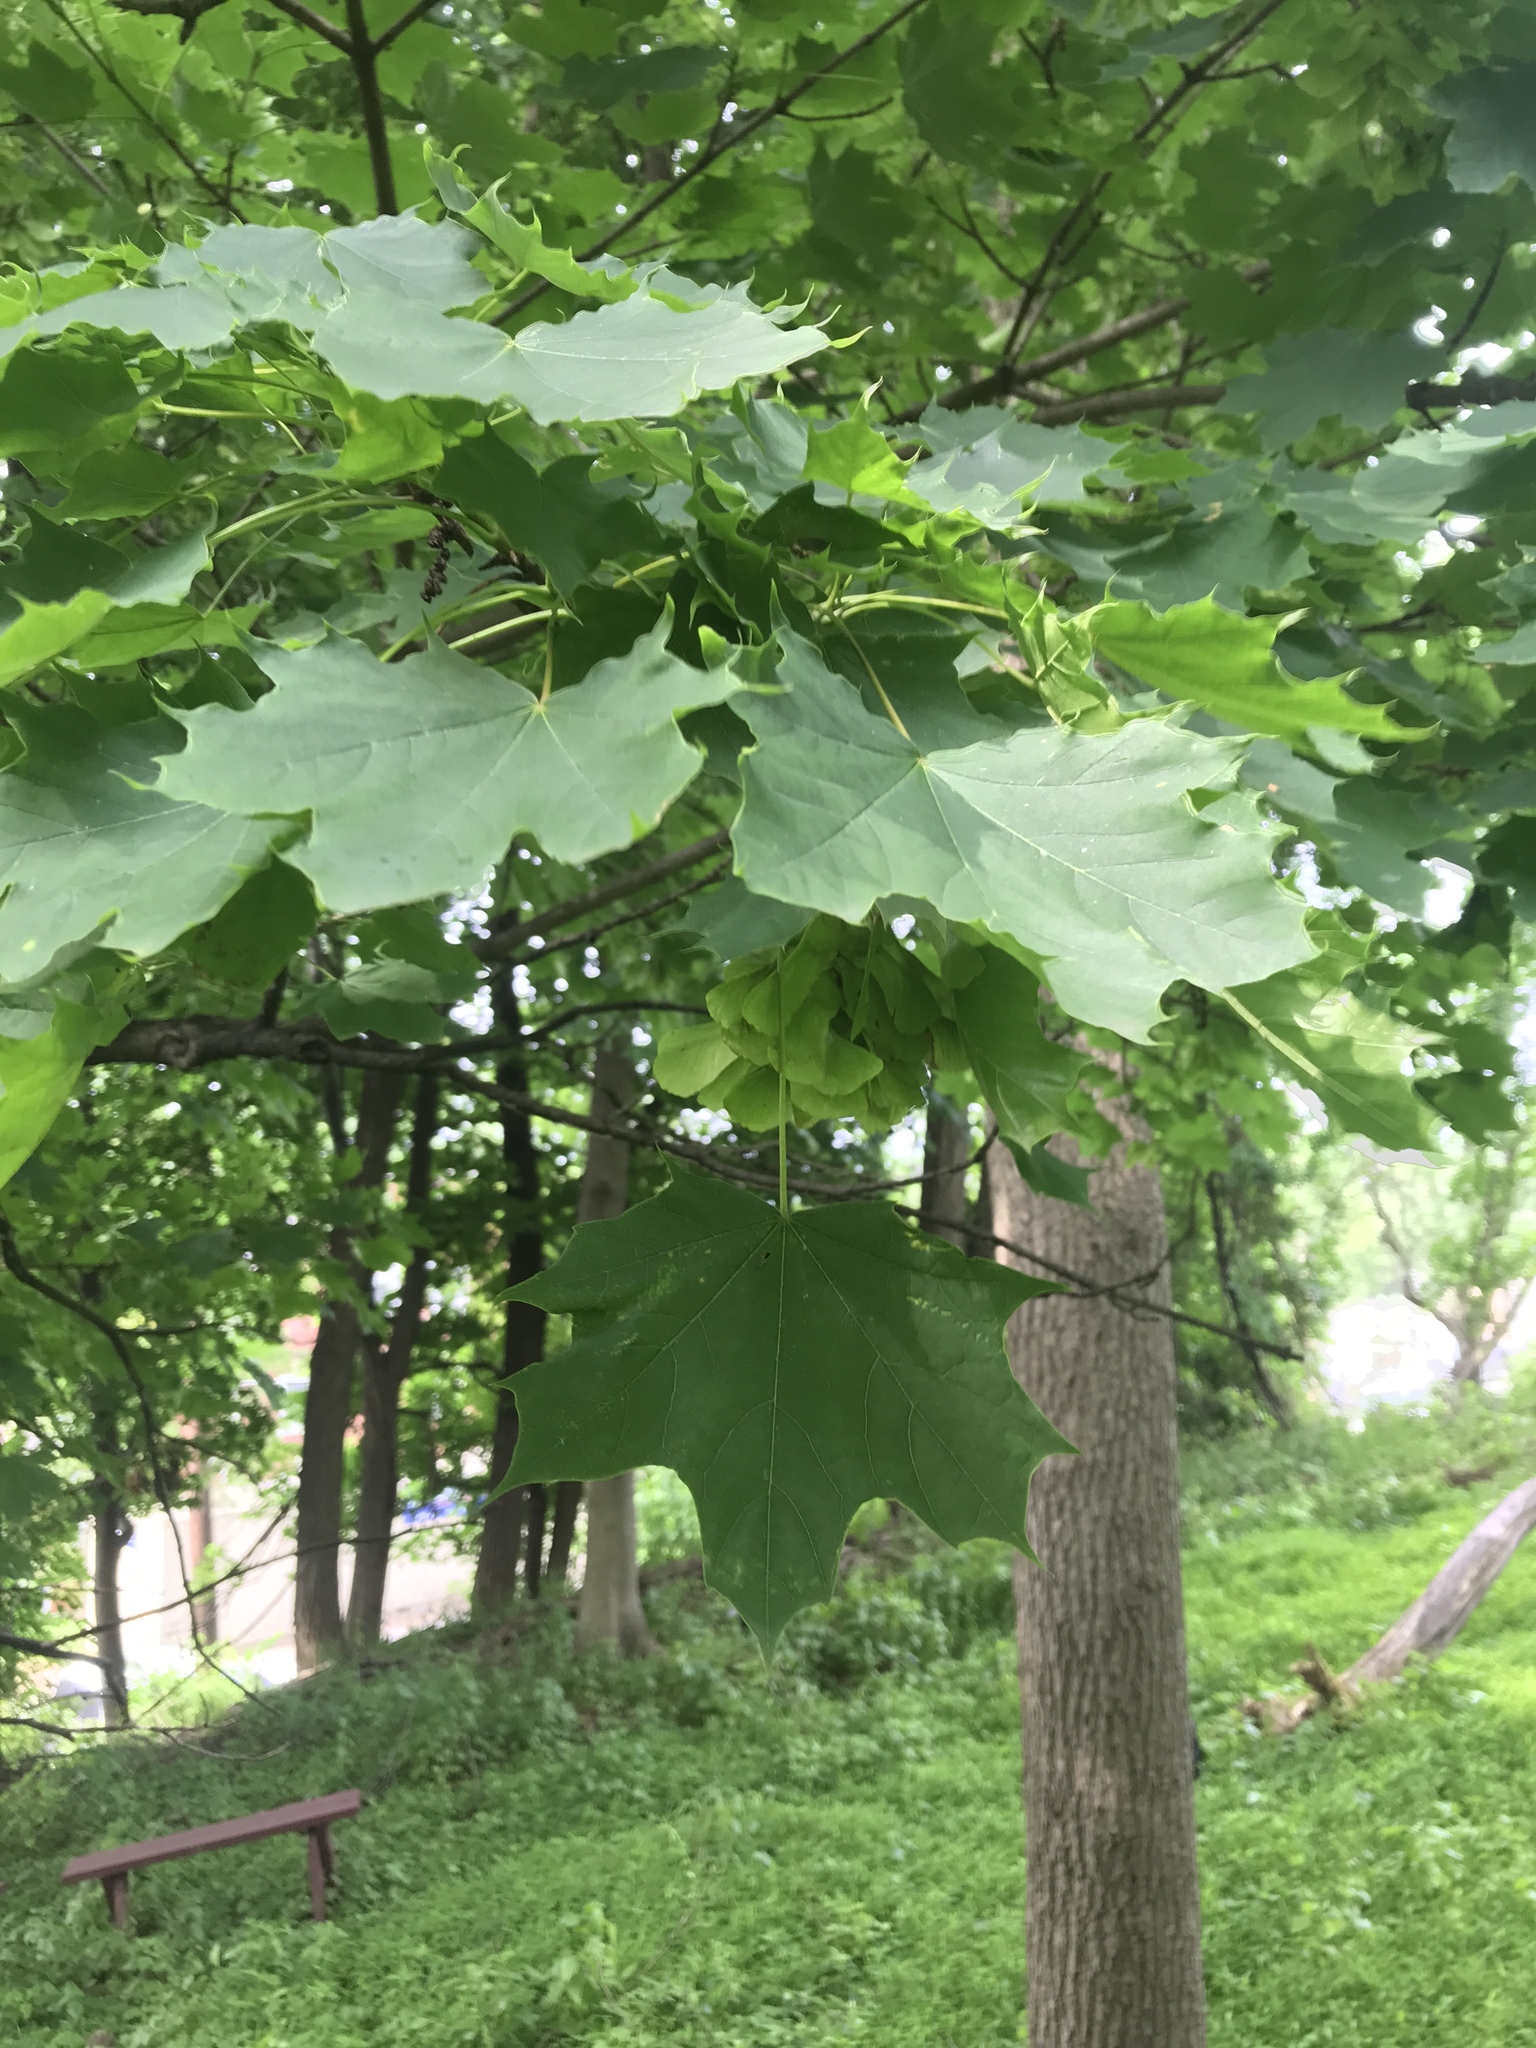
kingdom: Plantae
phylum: Tracheophyta
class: Magnoliopsida
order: Sapindales
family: Sapindaceae
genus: Acer
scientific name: Acer platanoides
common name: Norway maple
